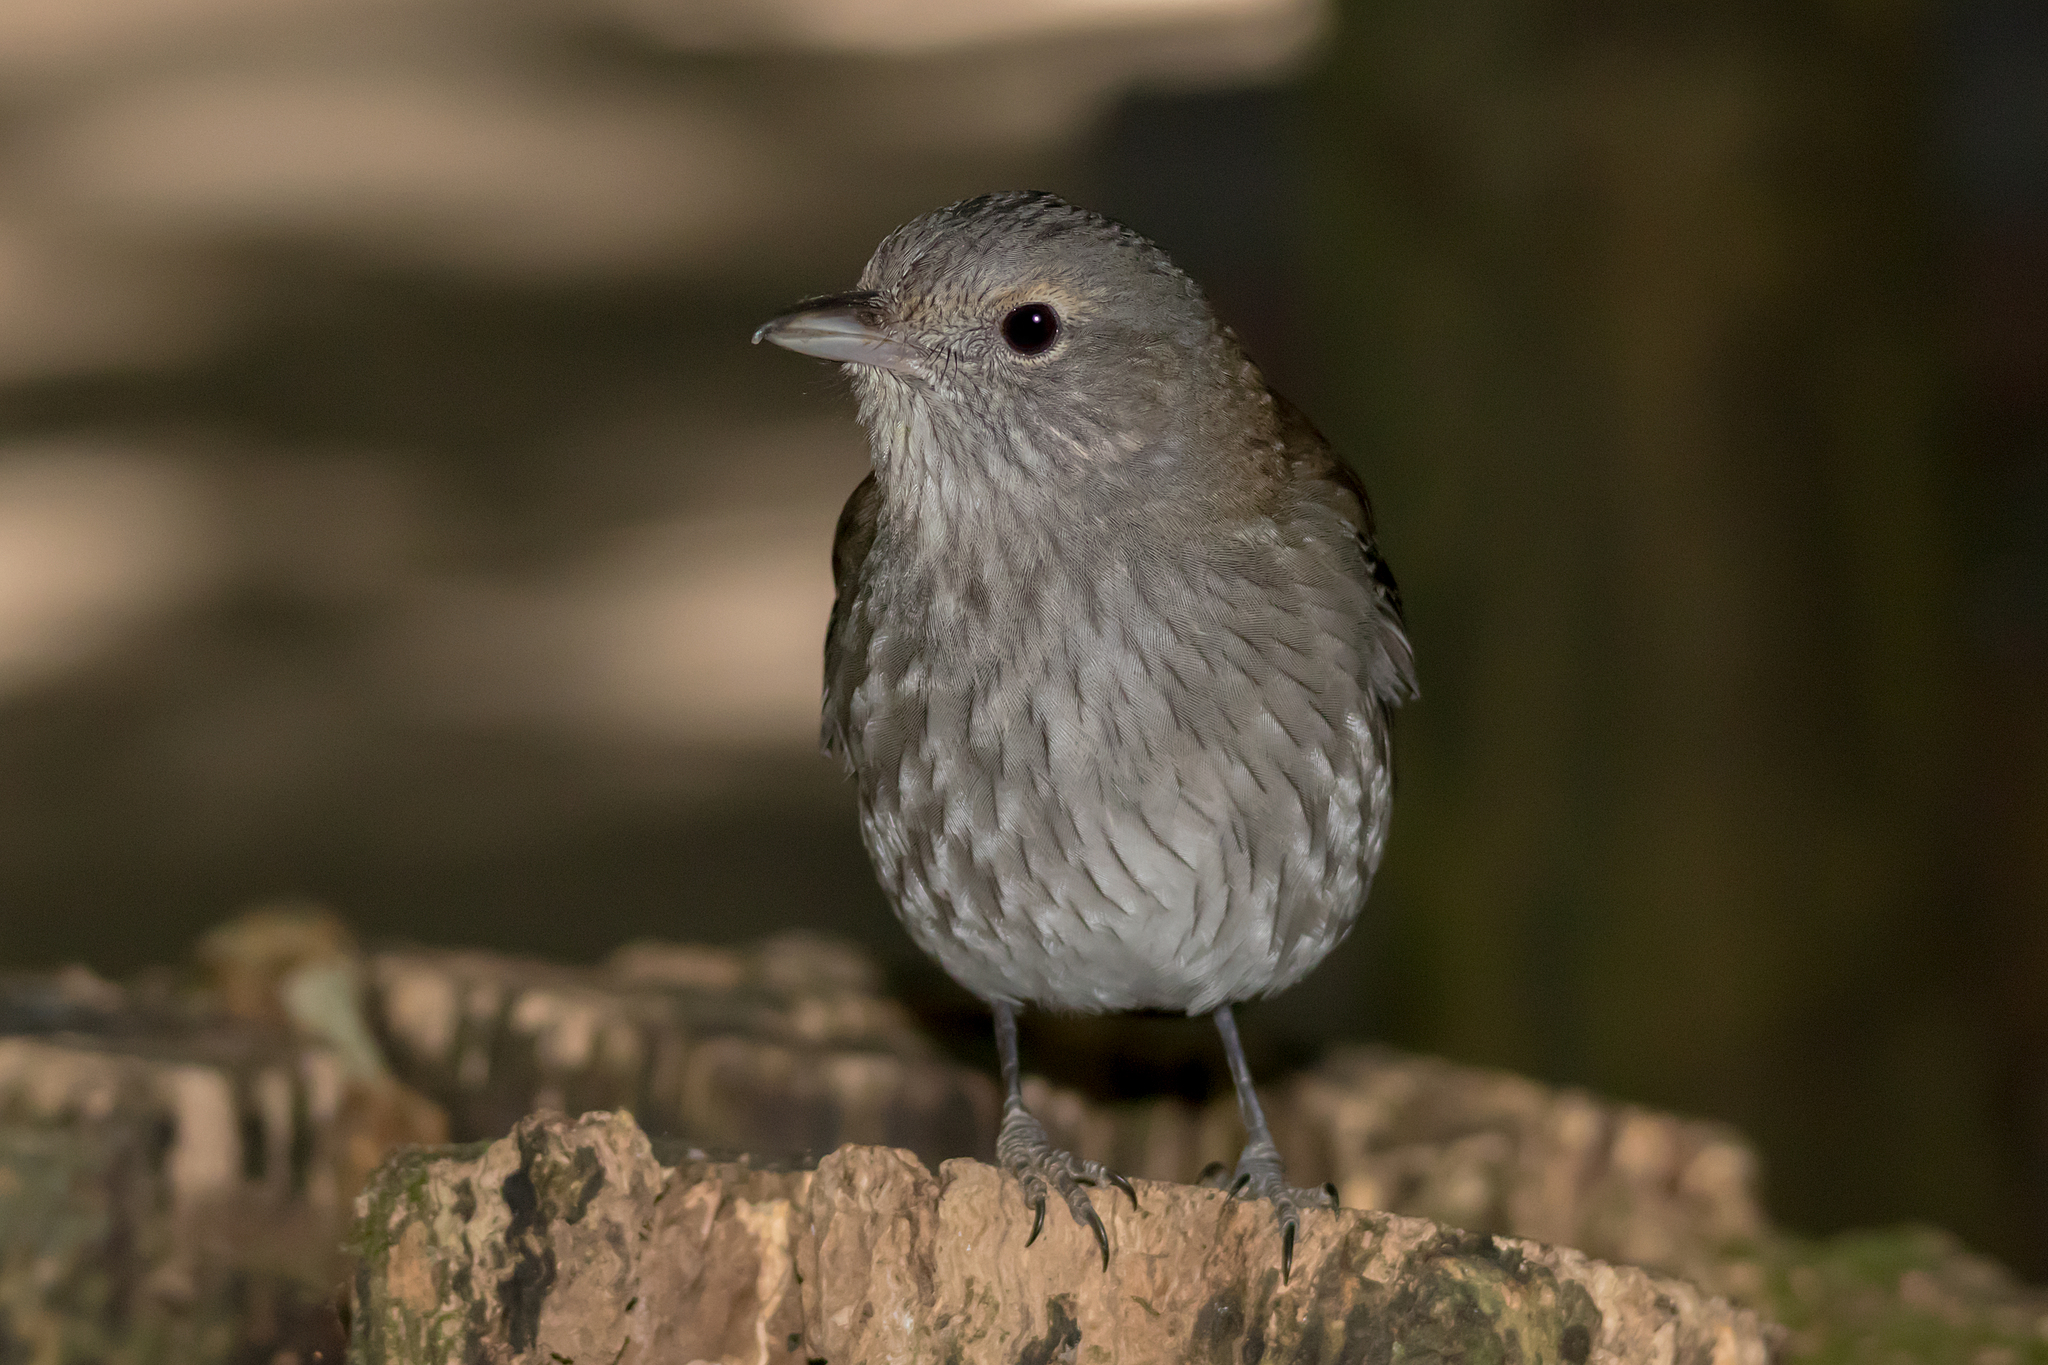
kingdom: Animalia
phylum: Chordata
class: Aves
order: Passeriformes
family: Pachycephalidae
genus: Colluricincla
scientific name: Colluricincla harmonica
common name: Grey shrikethrush
